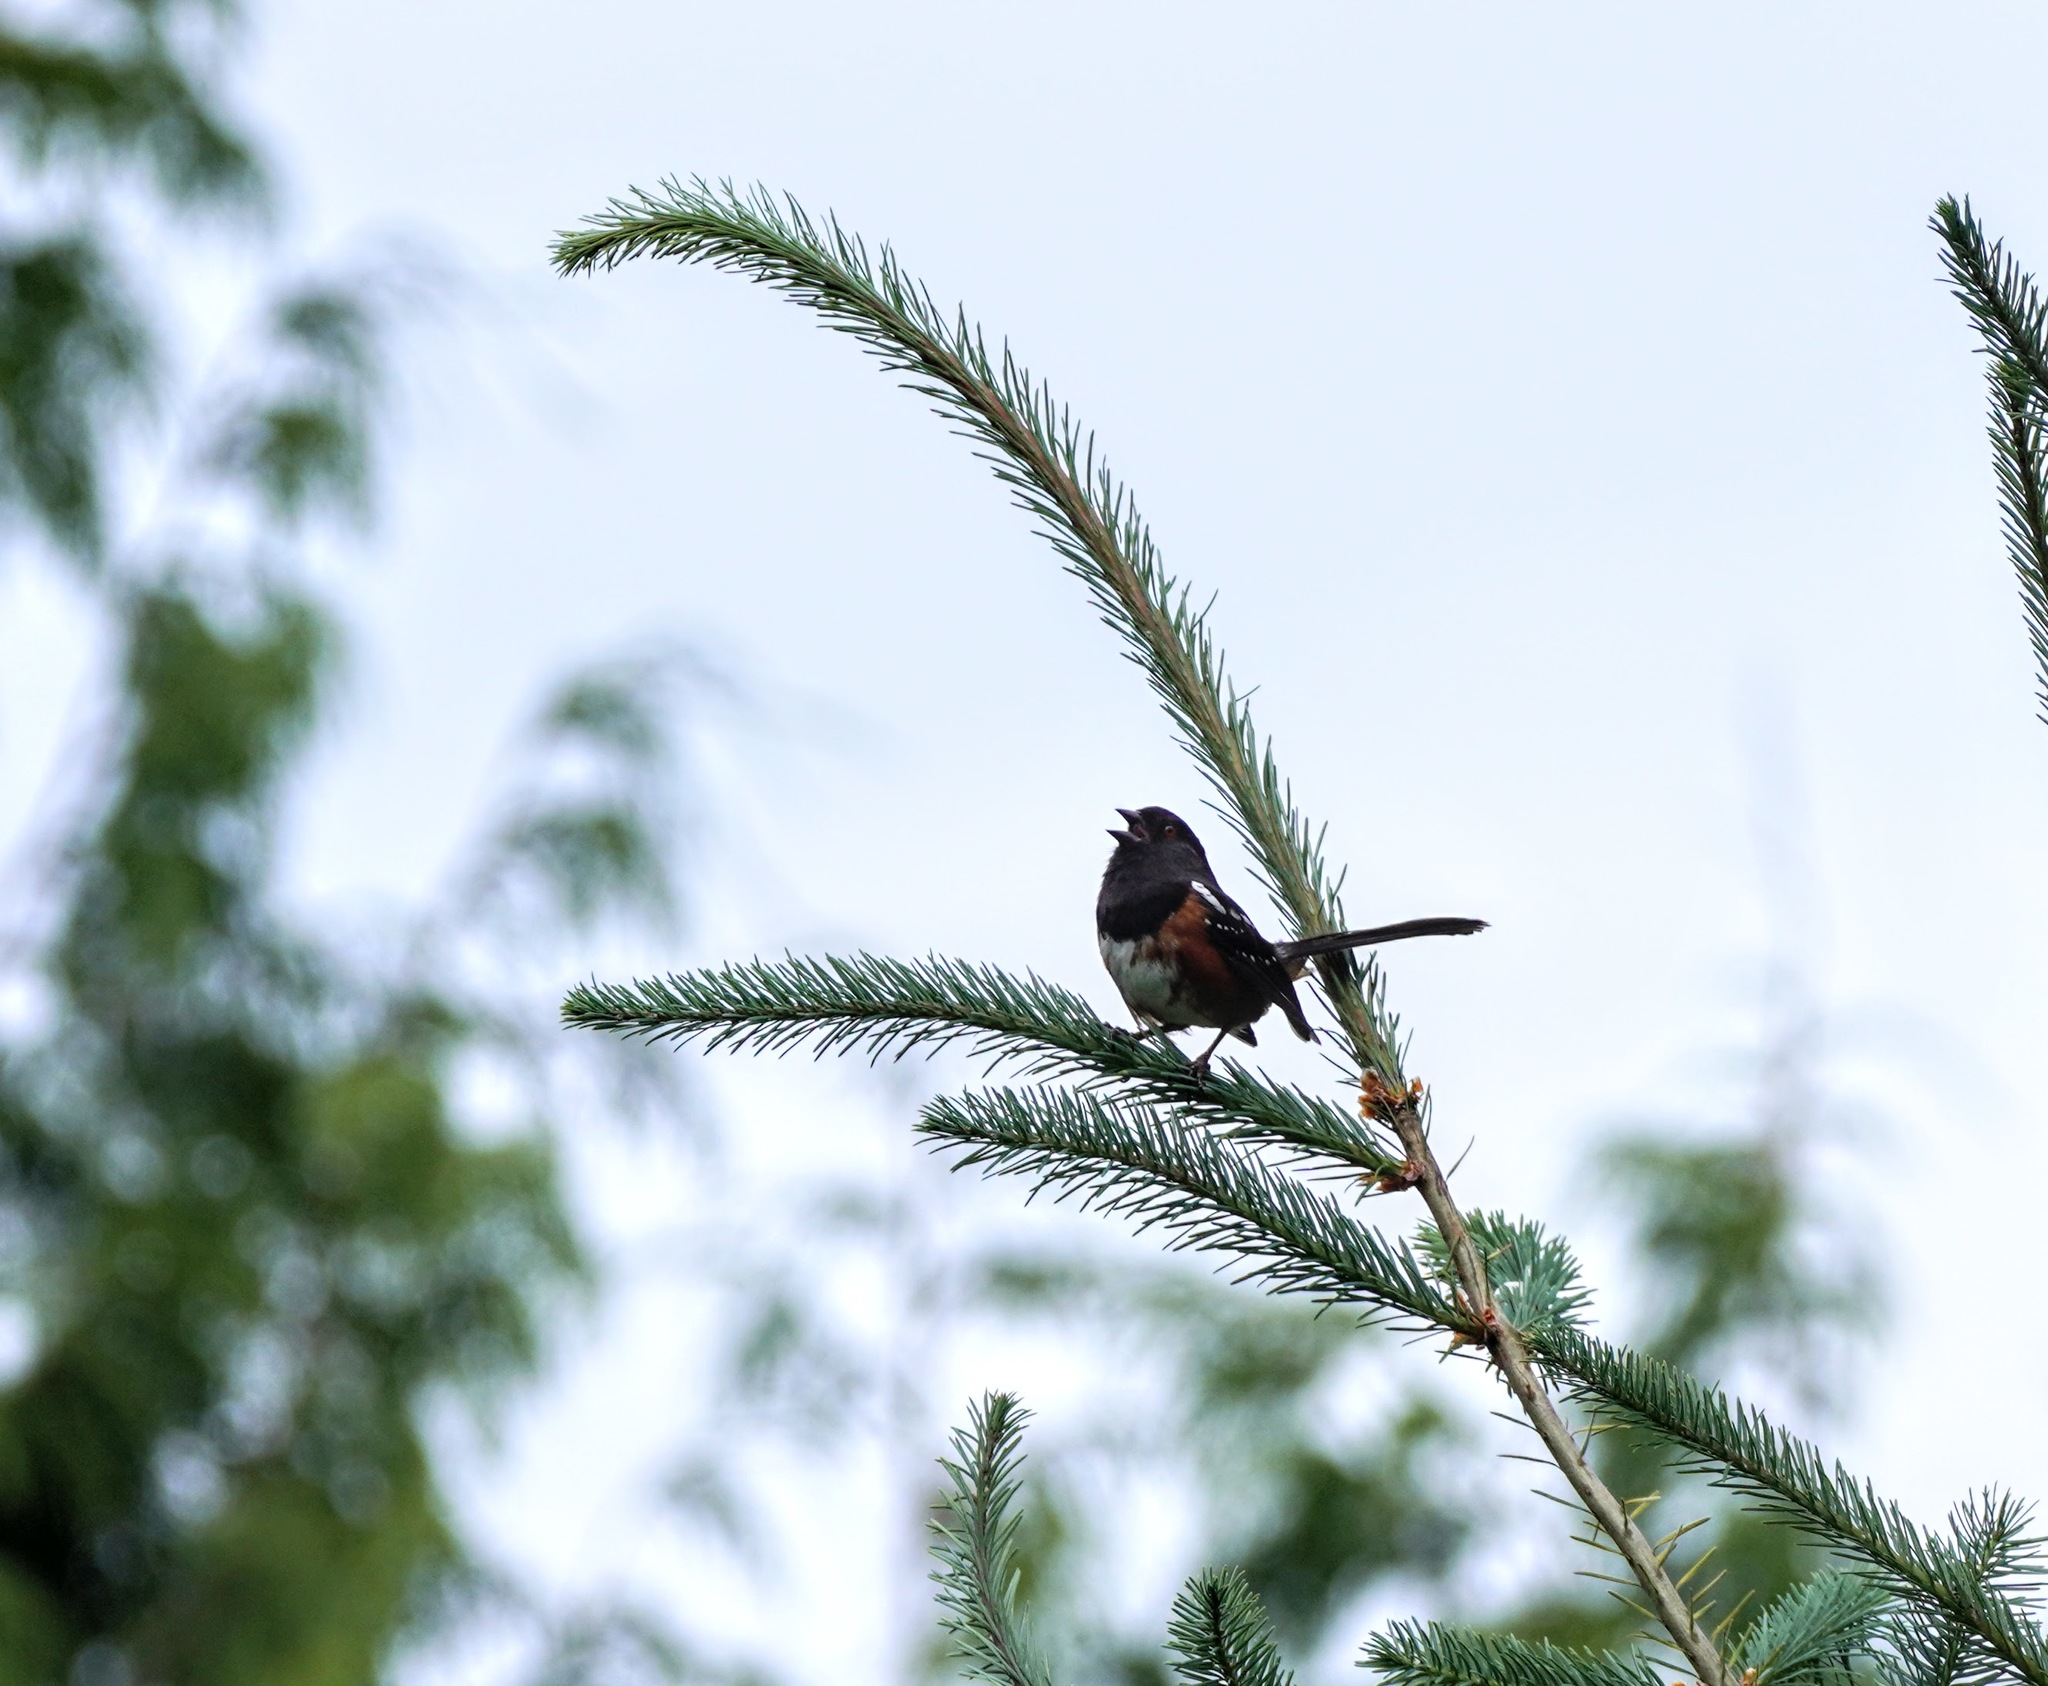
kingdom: Animalia
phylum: Chordata
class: Aves
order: Passeriformes
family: Passerellidae
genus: Pipilo
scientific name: Pipilo maculatus
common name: Spotted towhee
